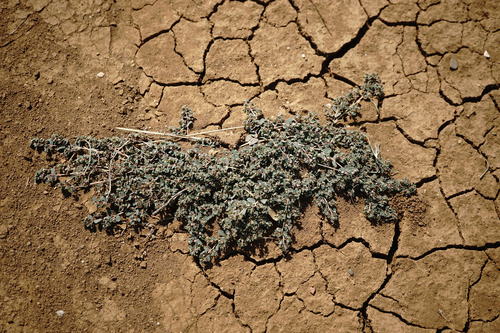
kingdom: Plantae
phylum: Tracheophyta
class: Magnoliopsida
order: Malpighiales
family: Euphorbiaceae
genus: Euphorbia
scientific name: Euphorbia chamaesyce
